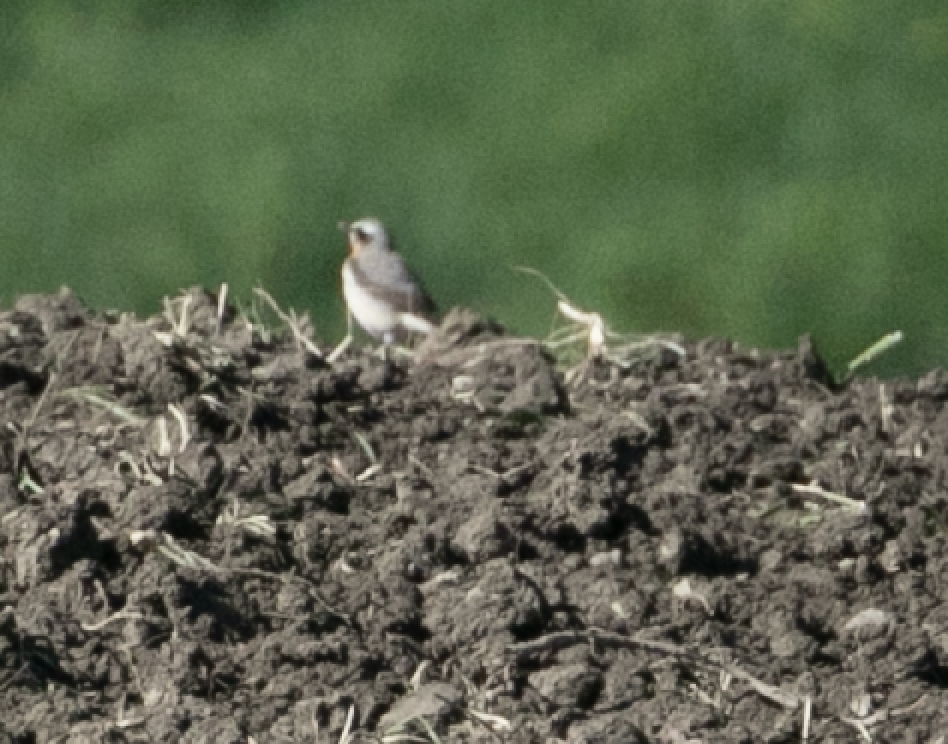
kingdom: Animalia
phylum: Chordata
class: Aves
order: Passeriformes
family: Muscicapidae
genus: Oenanthe
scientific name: Oenanthe oenanthe
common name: Northern wheatear
